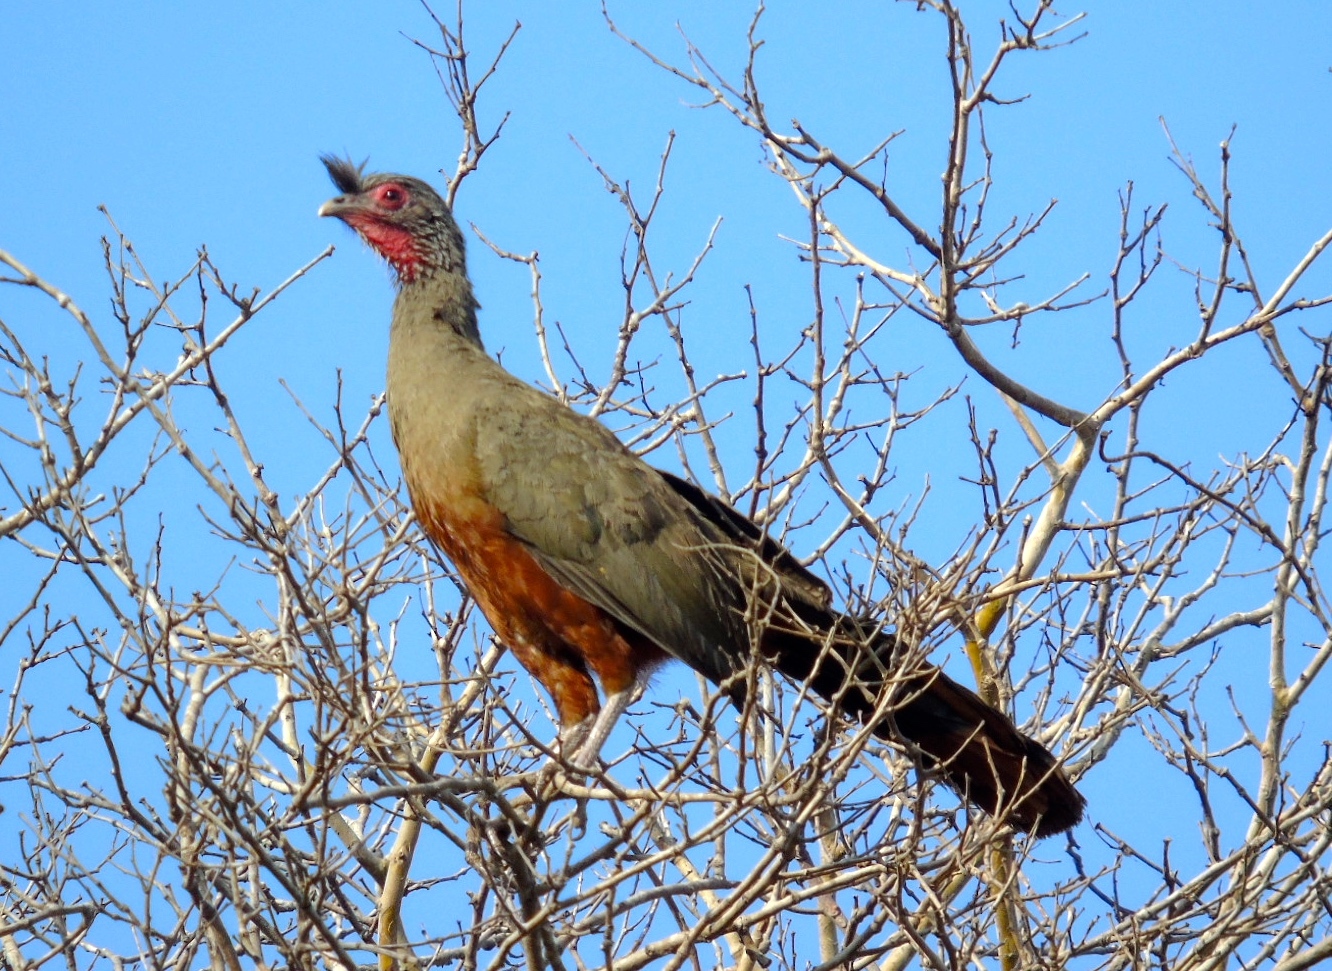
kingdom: Animalia
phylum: Chordata
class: Aves
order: Galliformes
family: Cracidae
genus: Ortalis
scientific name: Ortalis wagleri
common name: Rufous-bellied chachalaca
